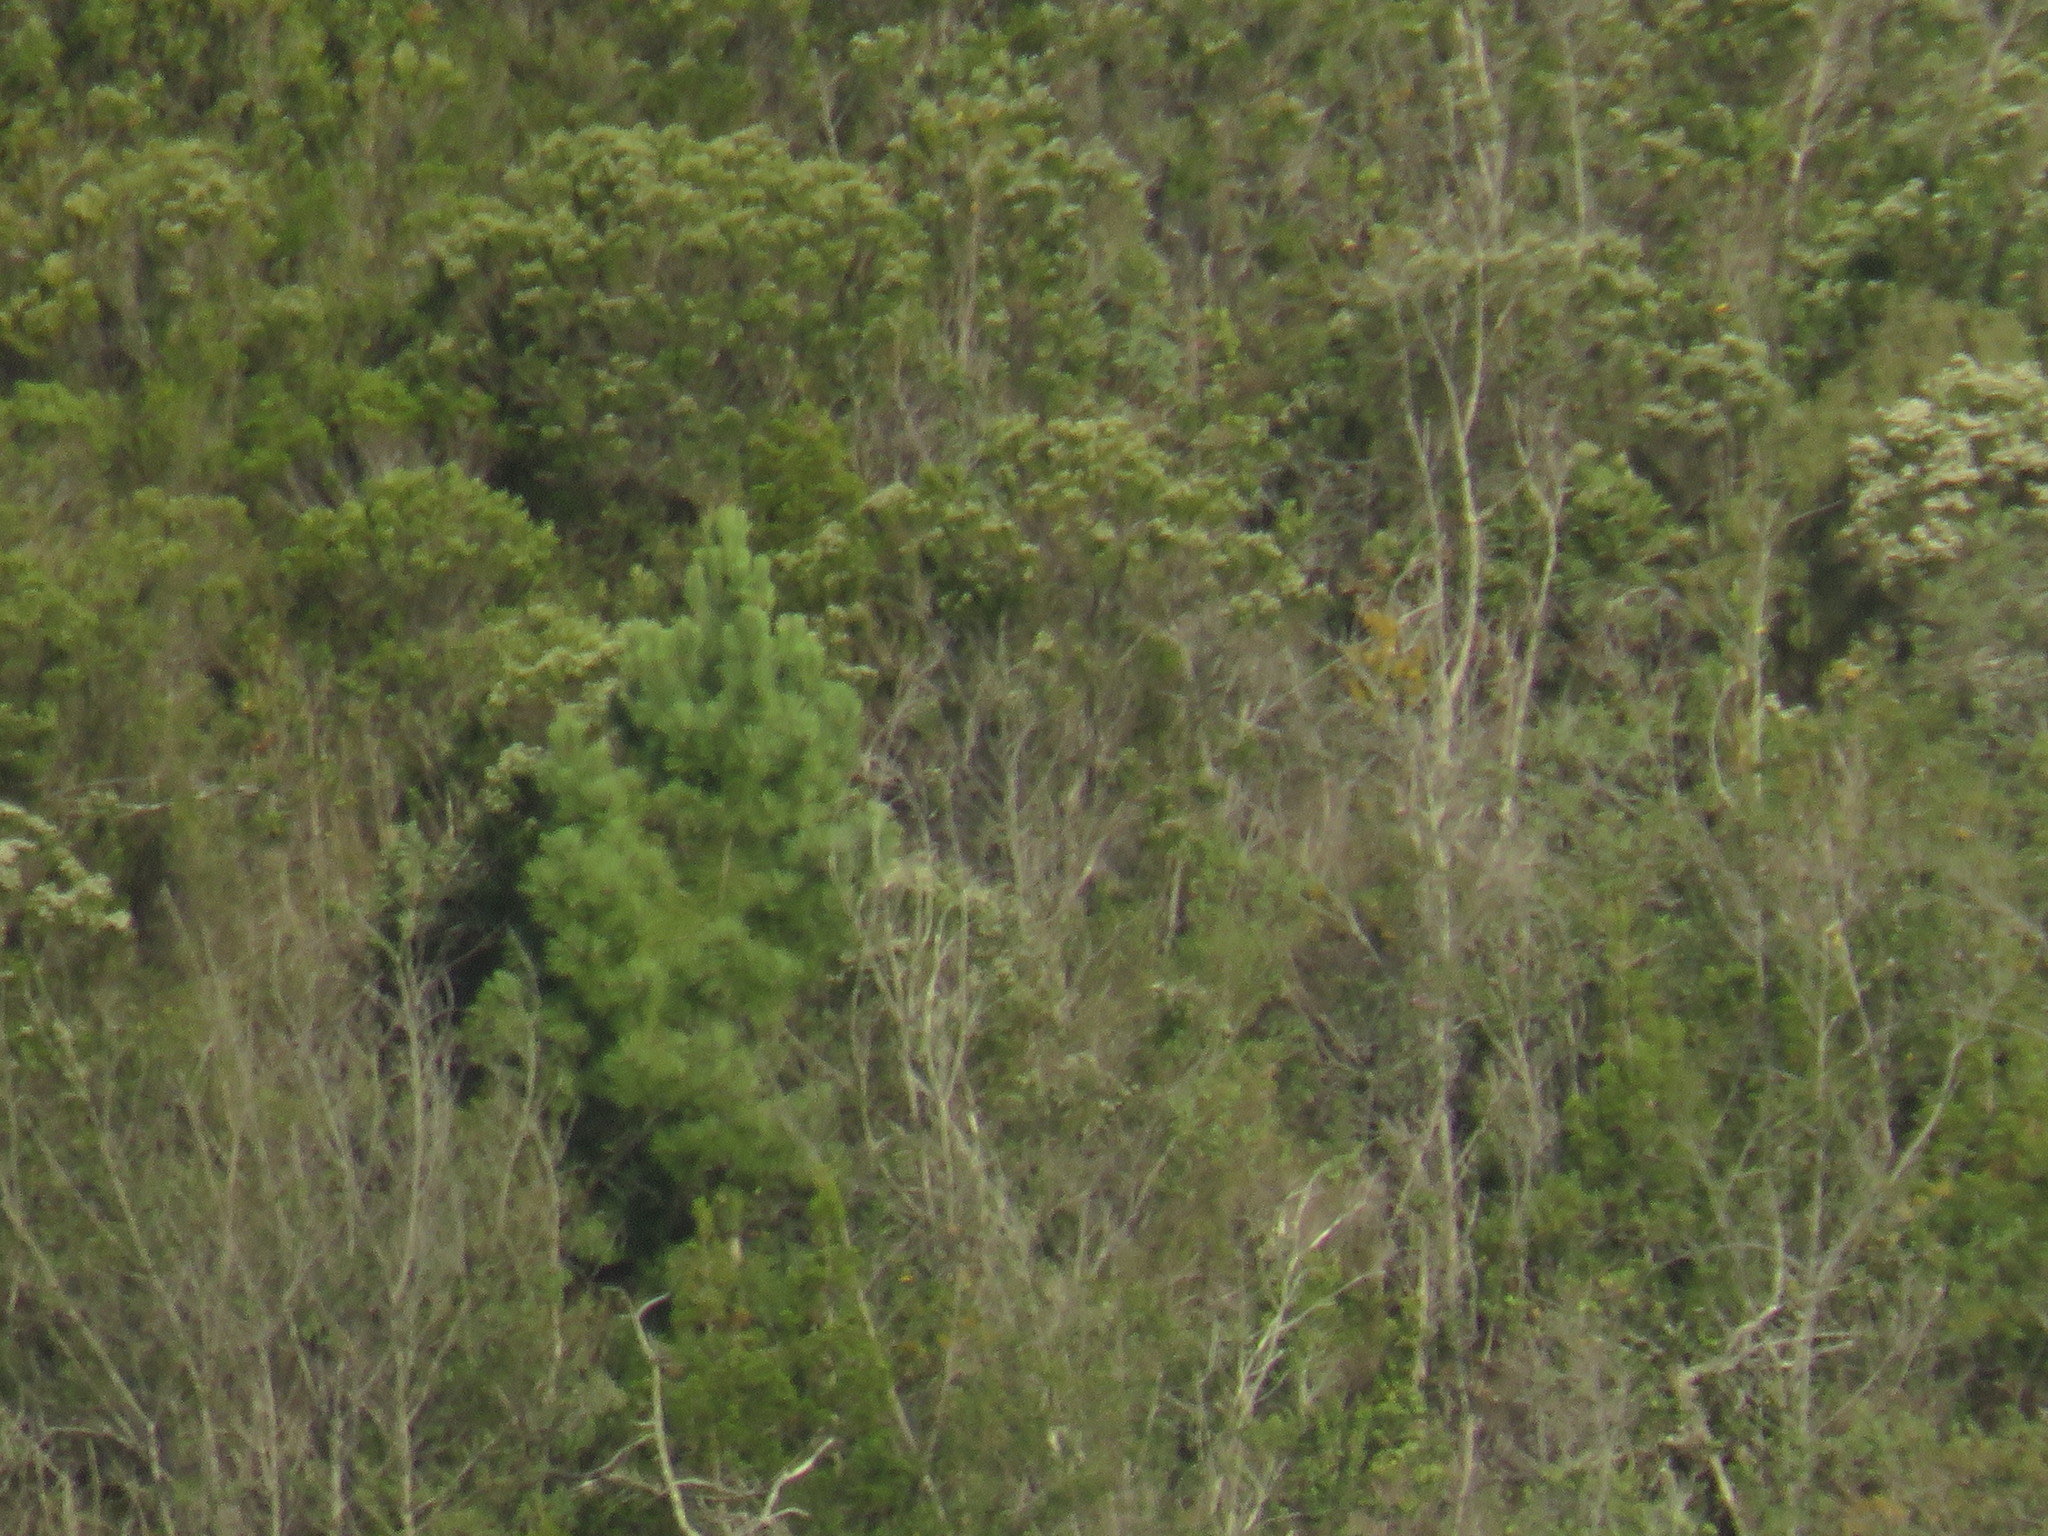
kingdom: Plantae
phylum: Tracheophyta
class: Pinopsida
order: Pinales
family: Pinaceae
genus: Pinus
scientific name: Pinus pinaster
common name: Maritime pine
